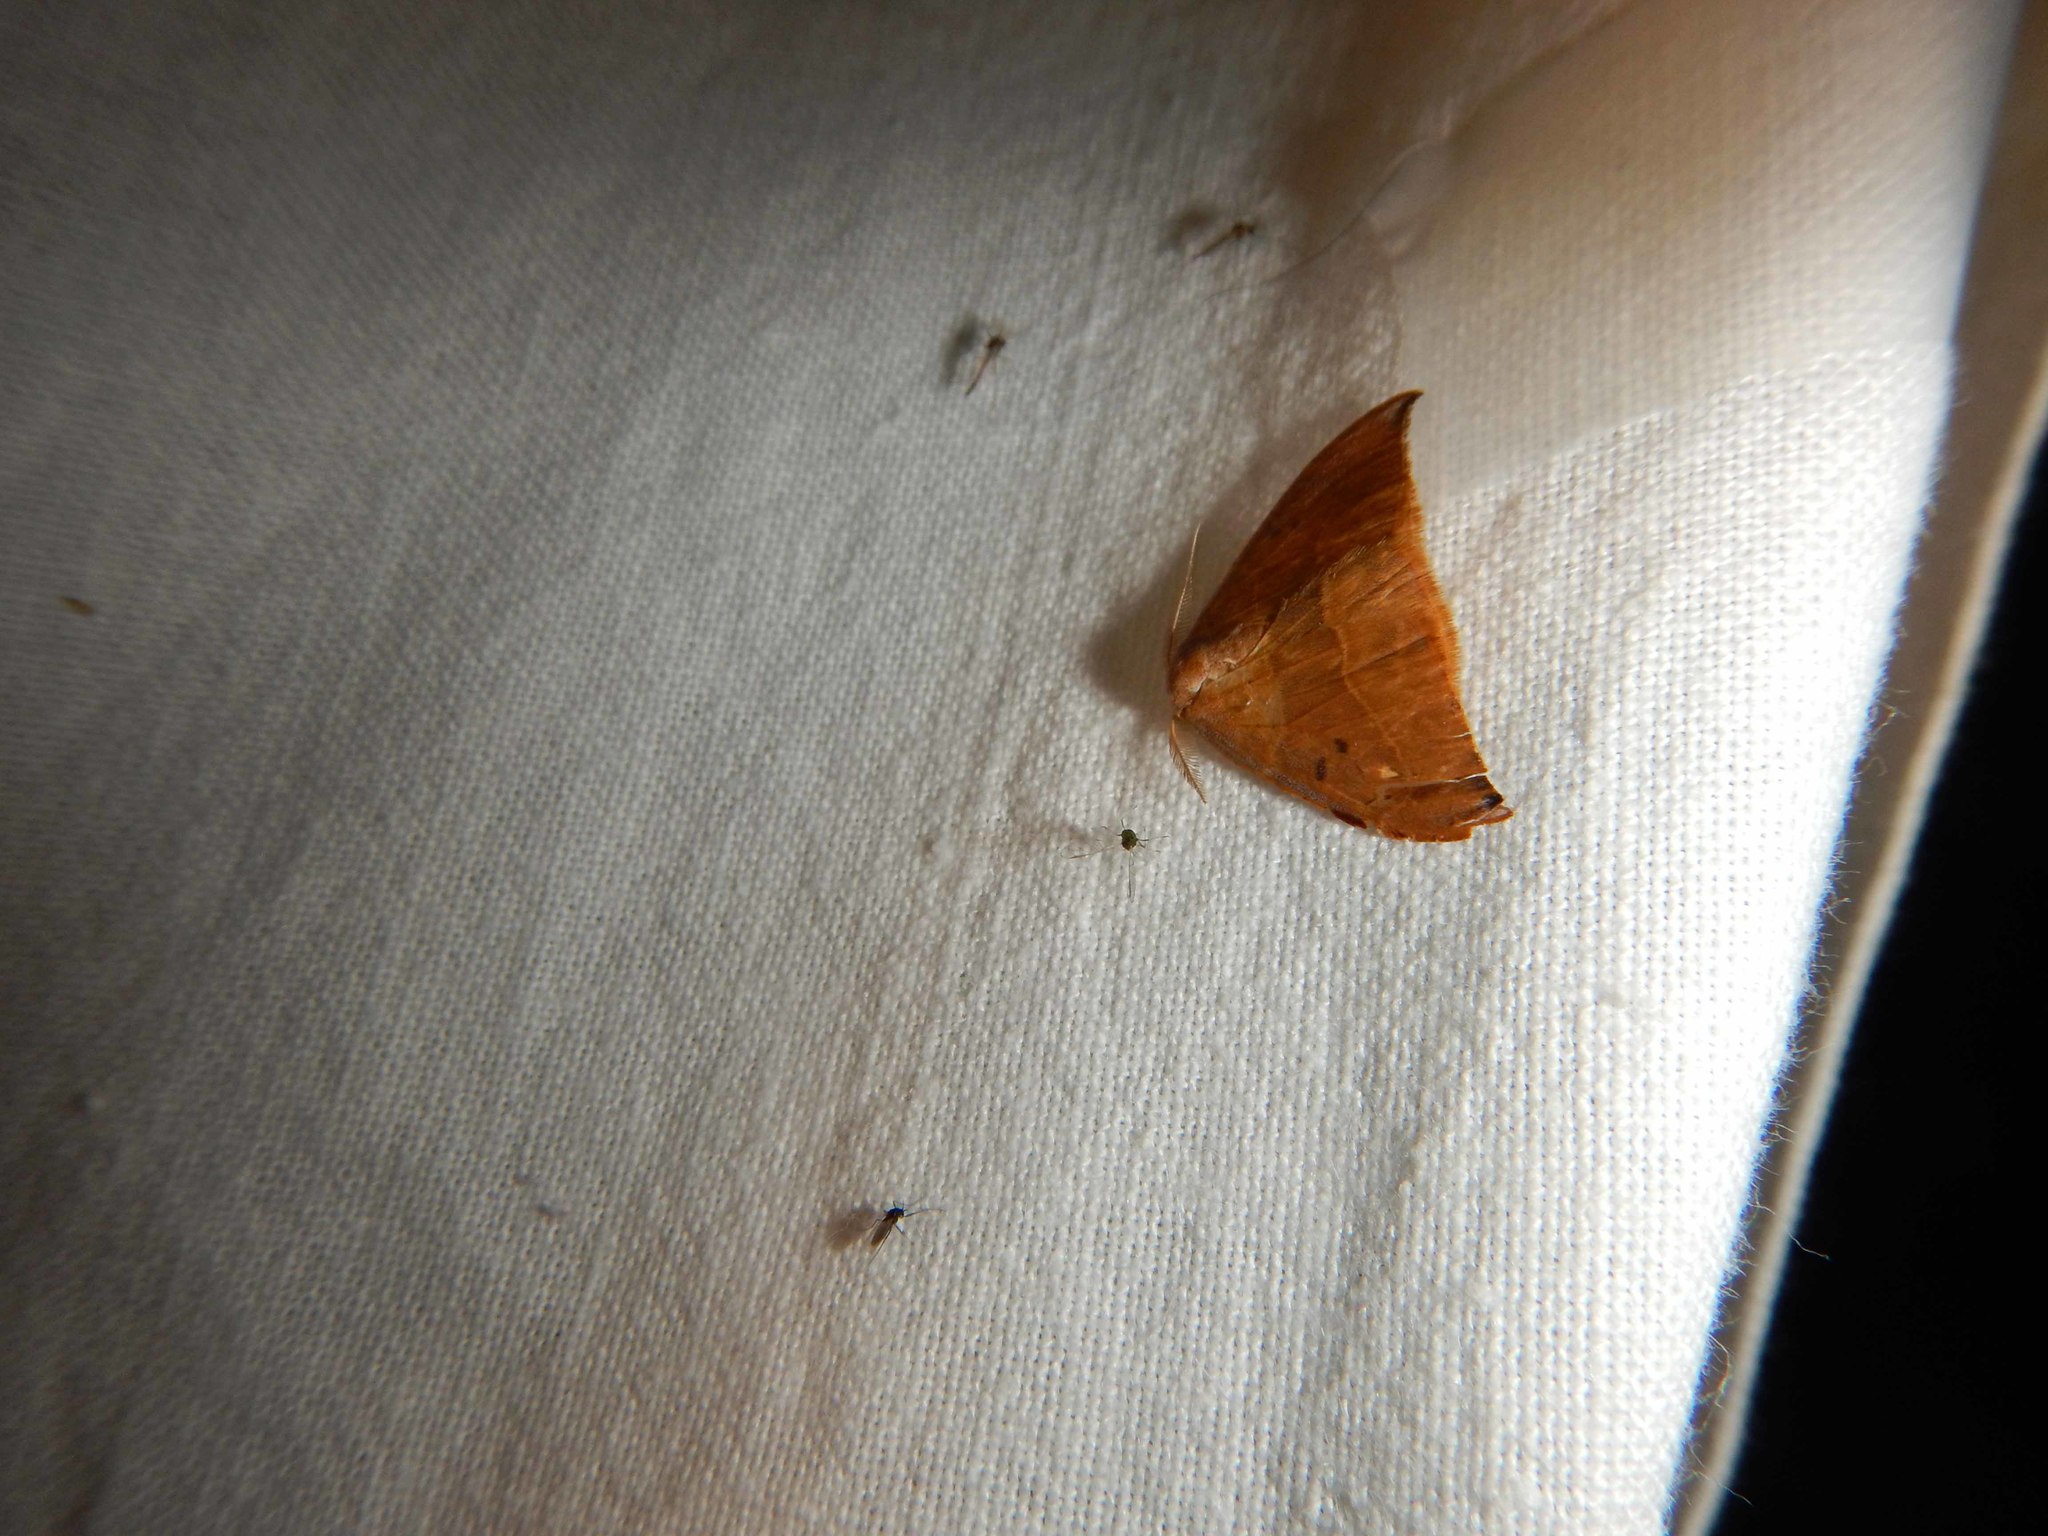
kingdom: Animalia
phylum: Arthropoda
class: Insecta
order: Lepidoptera
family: Drepanidae
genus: Watsonalla
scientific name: Watsonalla binaria
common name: Oak hook-tip
